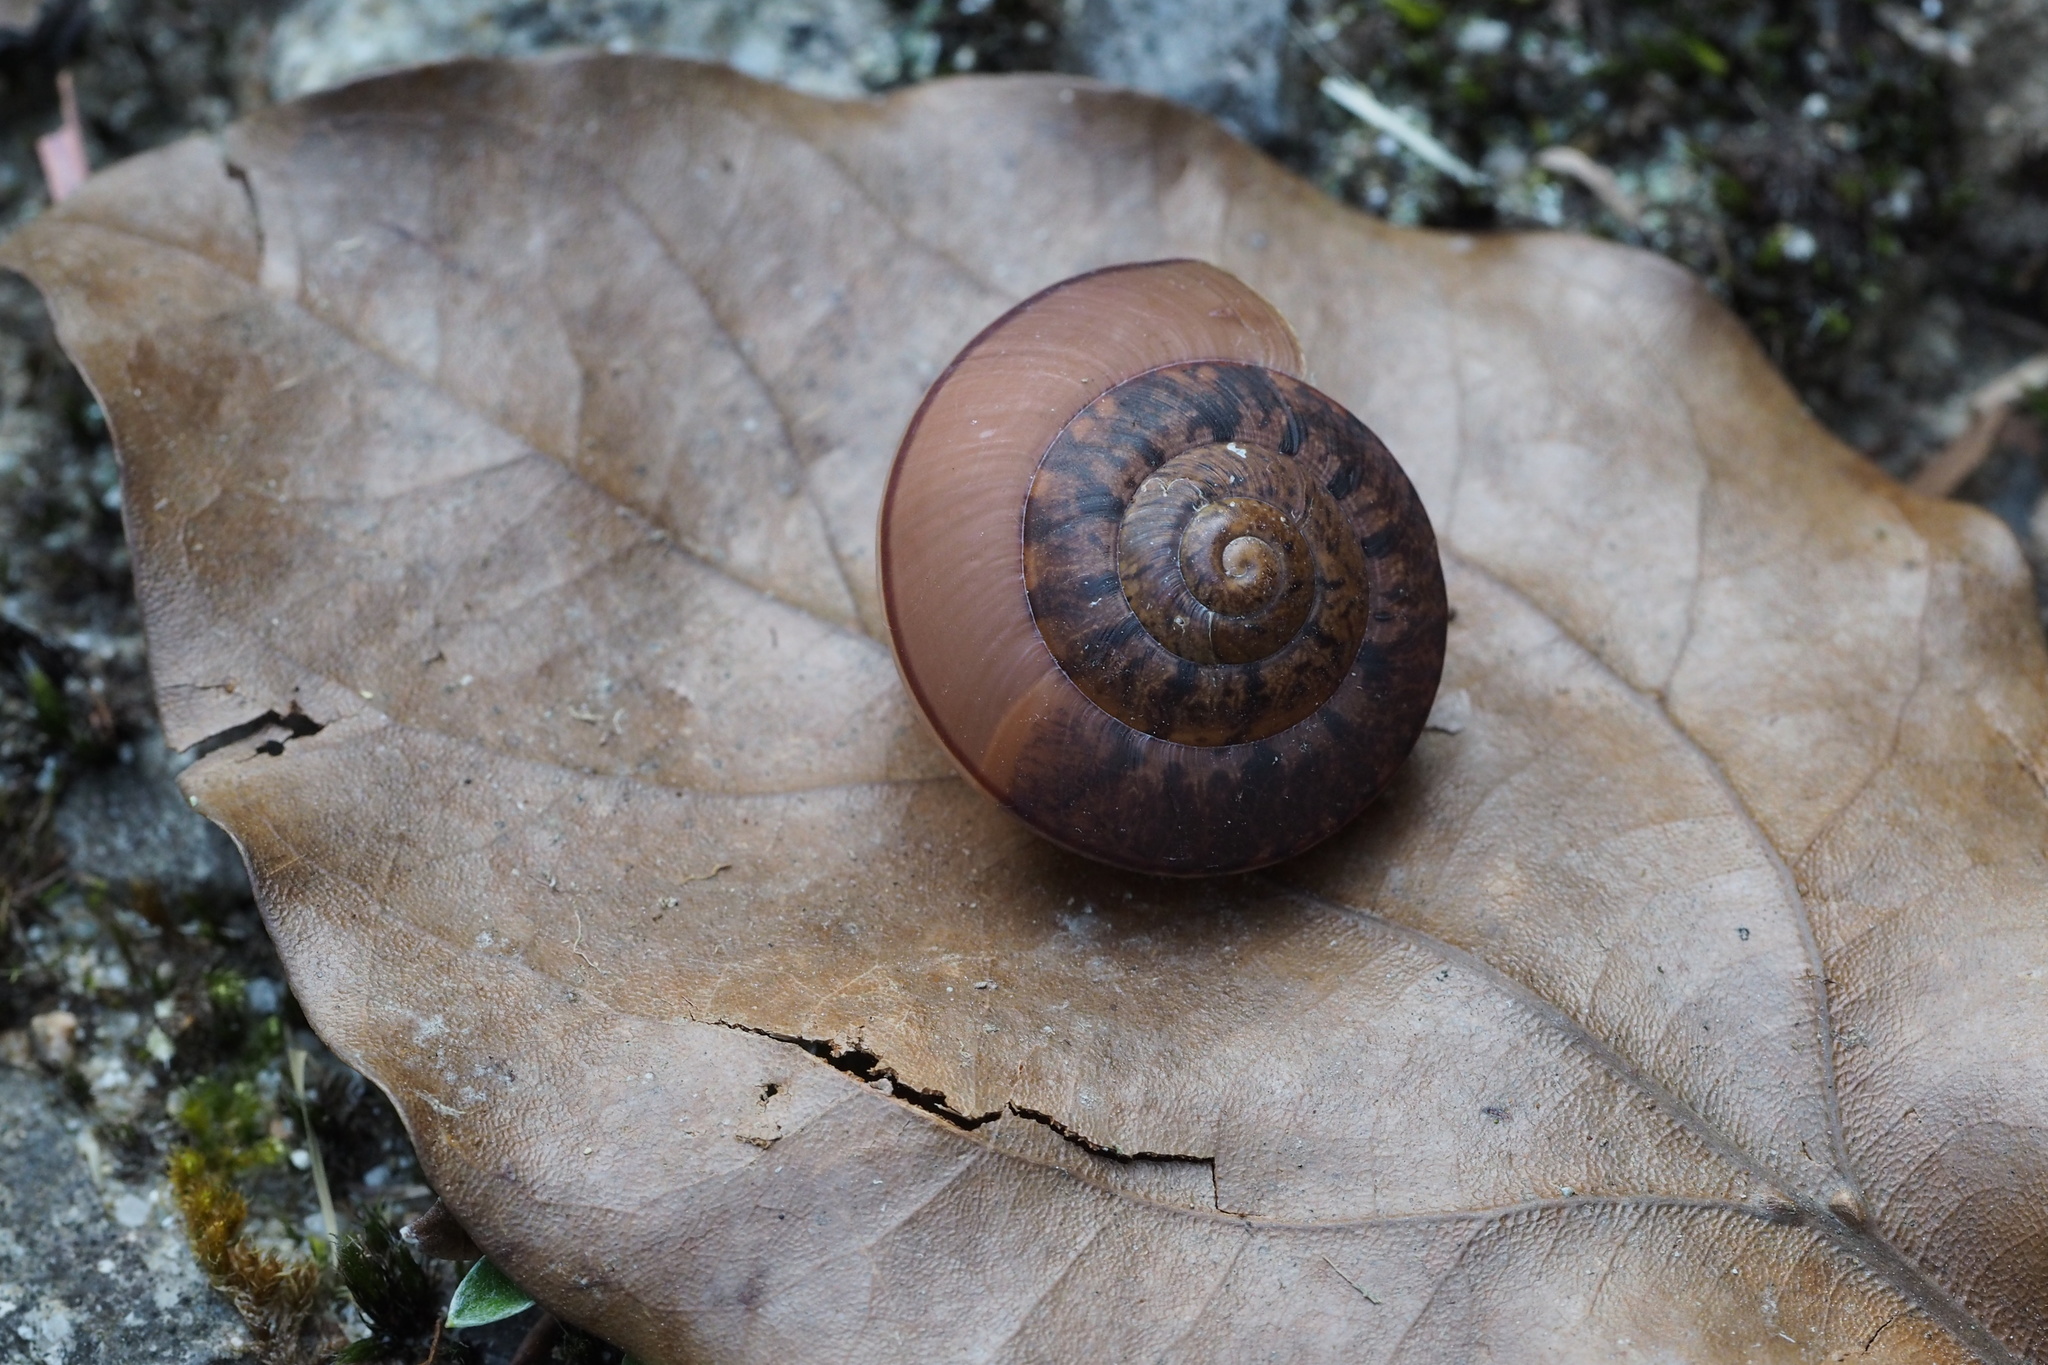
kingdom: Animalia
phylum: Mollusca
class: Gastropoda
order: Stylommatophora
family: Camaenidae
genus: Satsuma
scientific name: Satsuma myomphala
